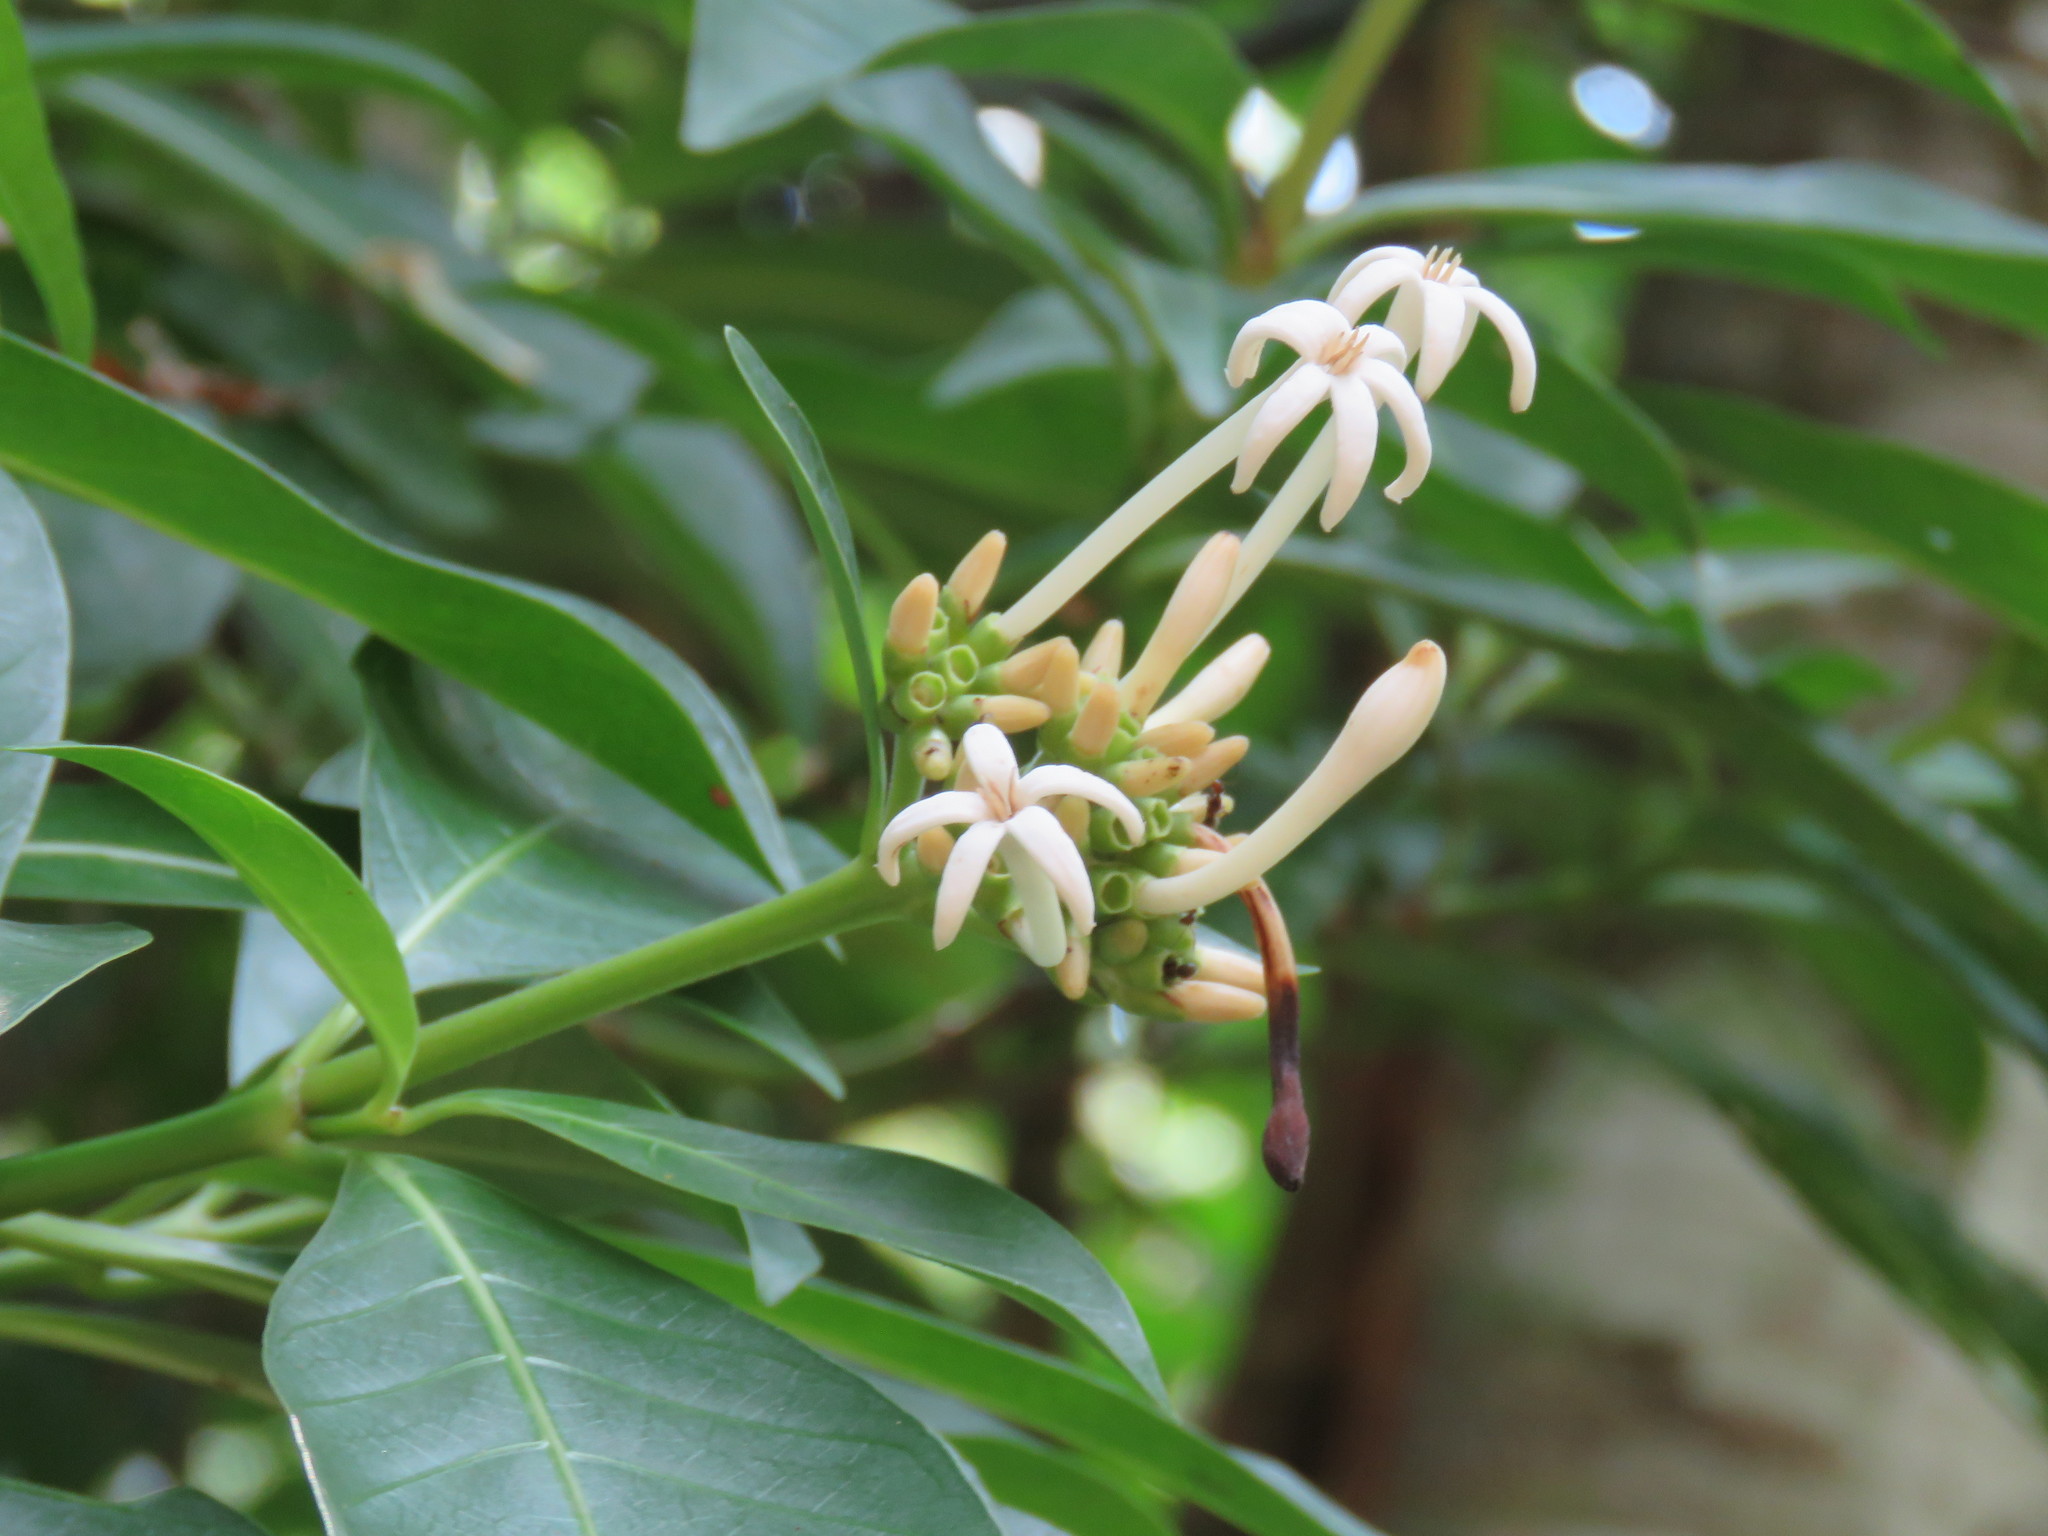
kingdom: Plantae
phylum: Tracheophyta
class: Magnoliopsida
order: Gentianales
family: Rubiaceae
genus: Palicourea
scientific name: Palicourea faxlucens
